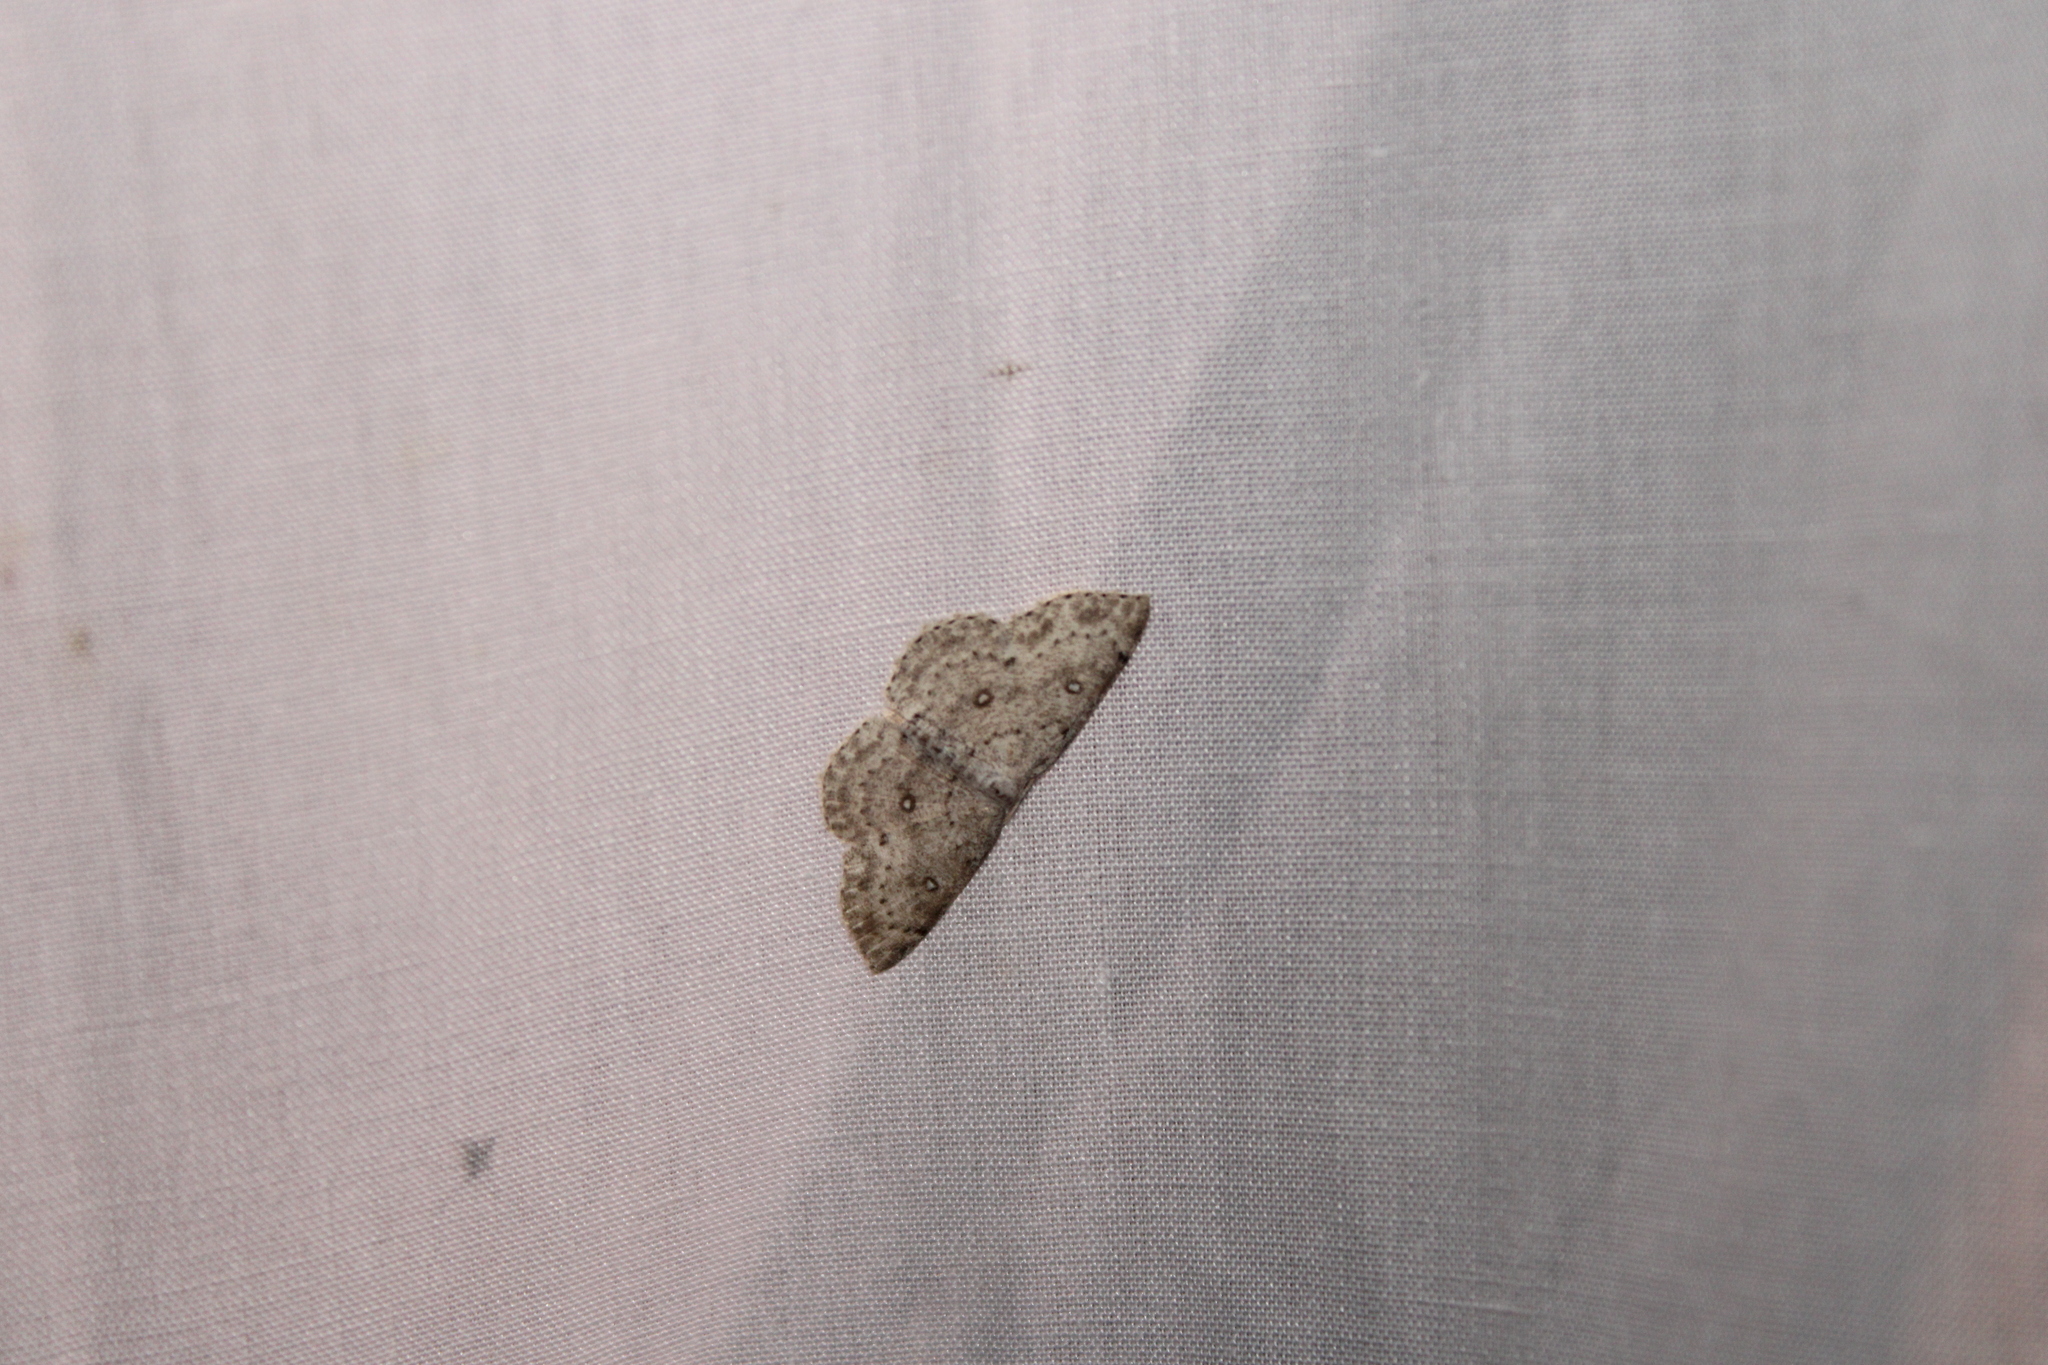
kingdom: Animalia
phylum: Arthropoda
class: Insecta
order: Lepidoptera
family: Geometridae
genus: Cyclophora
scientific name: Cyclophora pendulinaria
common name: Sweet fern geometer
